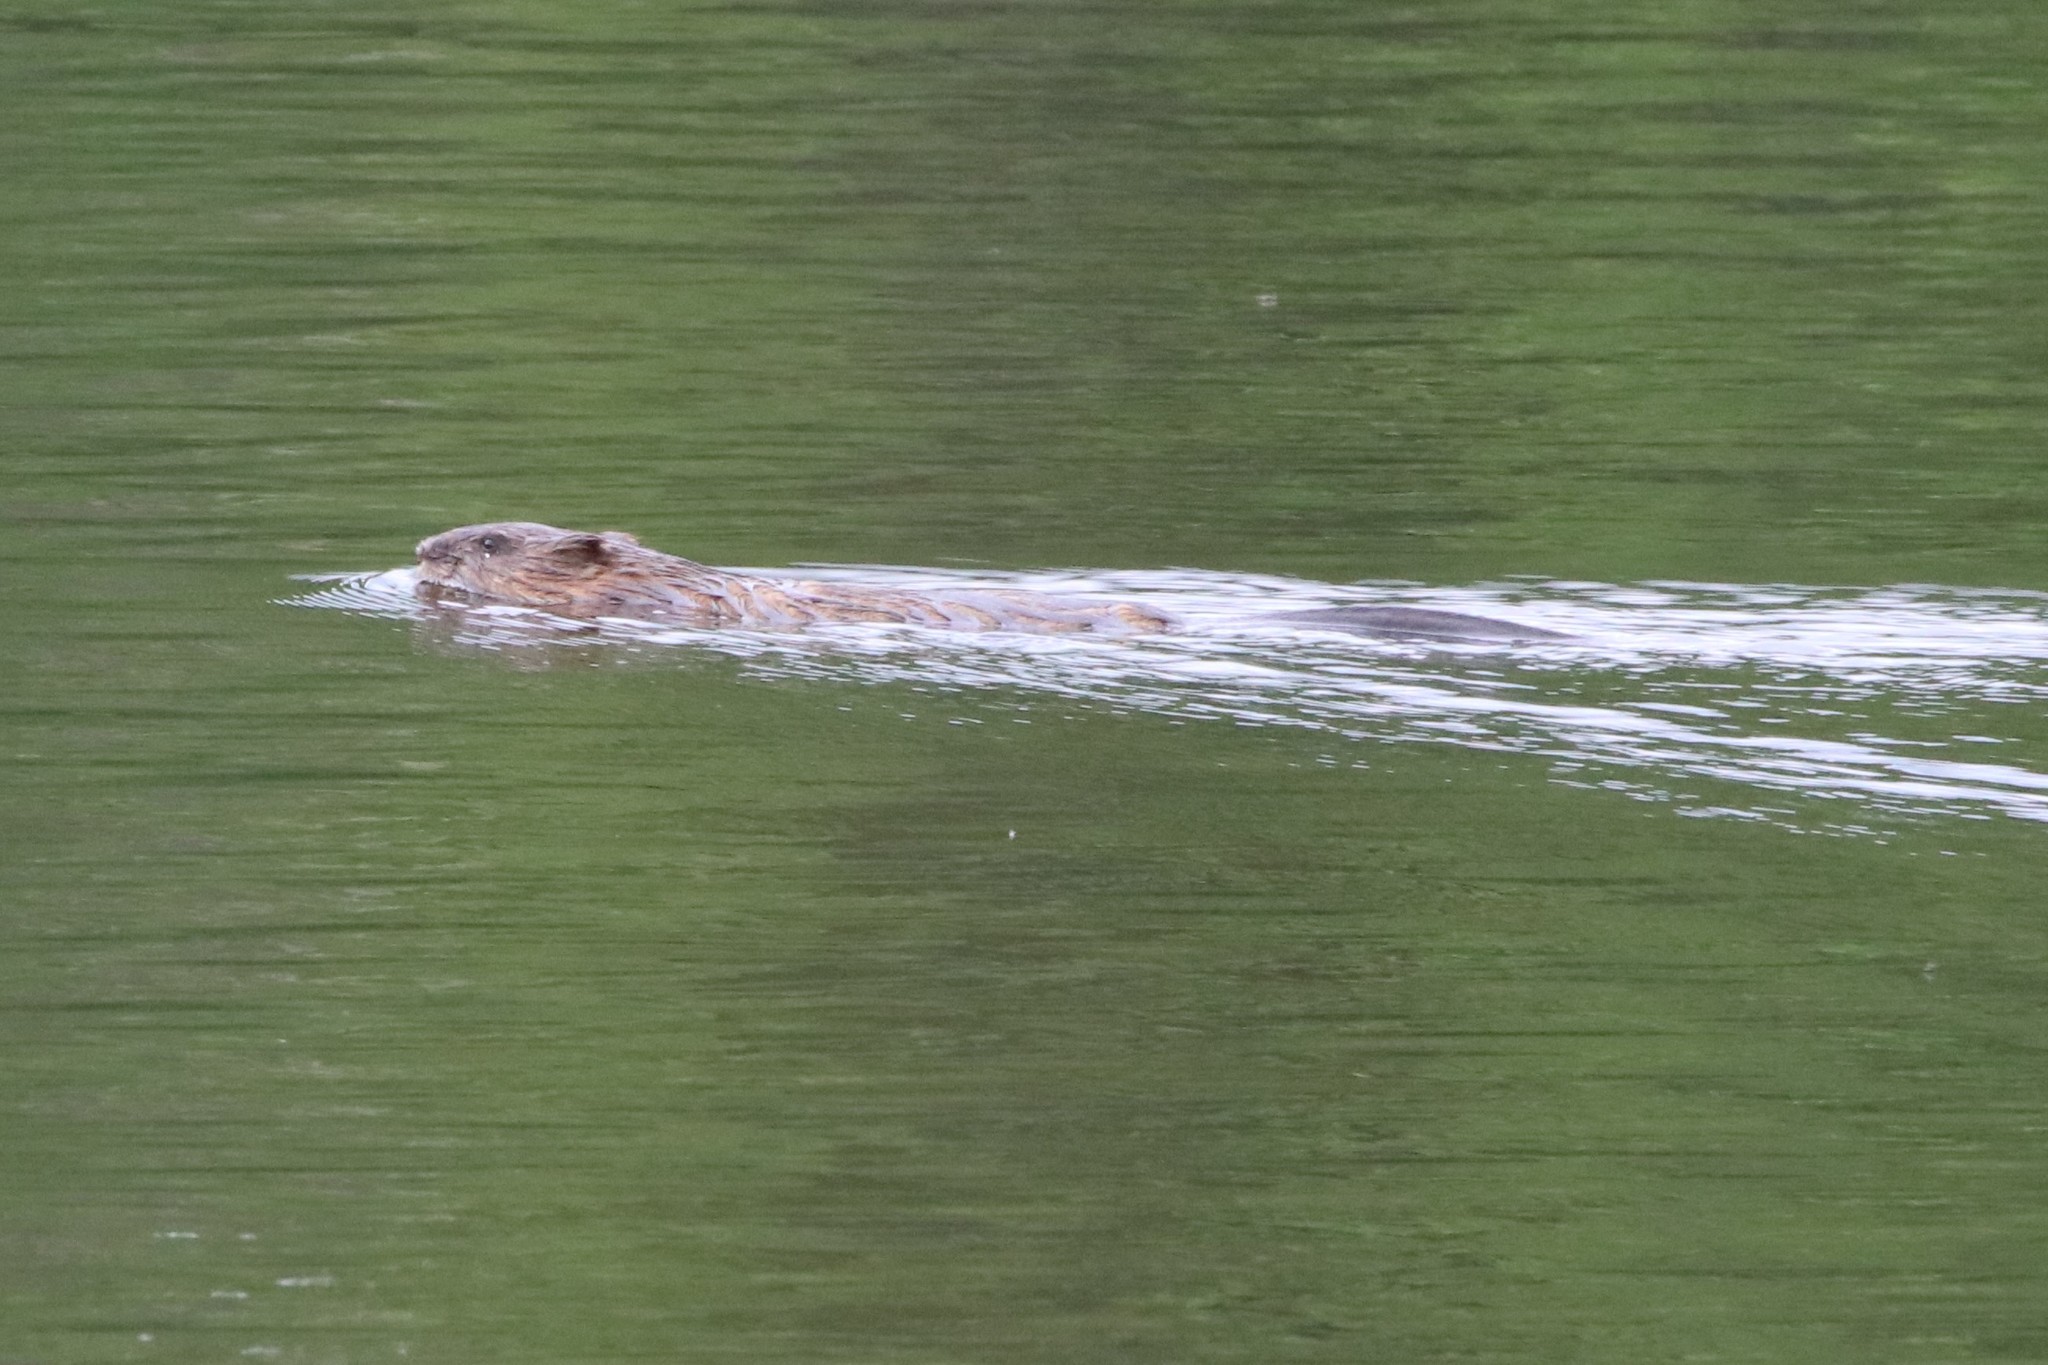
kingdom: Animalia
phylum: Chordata
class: Mammalia
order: Rodentia
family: Cricetidae
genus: Ondatra
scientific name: Ondatra zibethicus
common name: Muskrat
